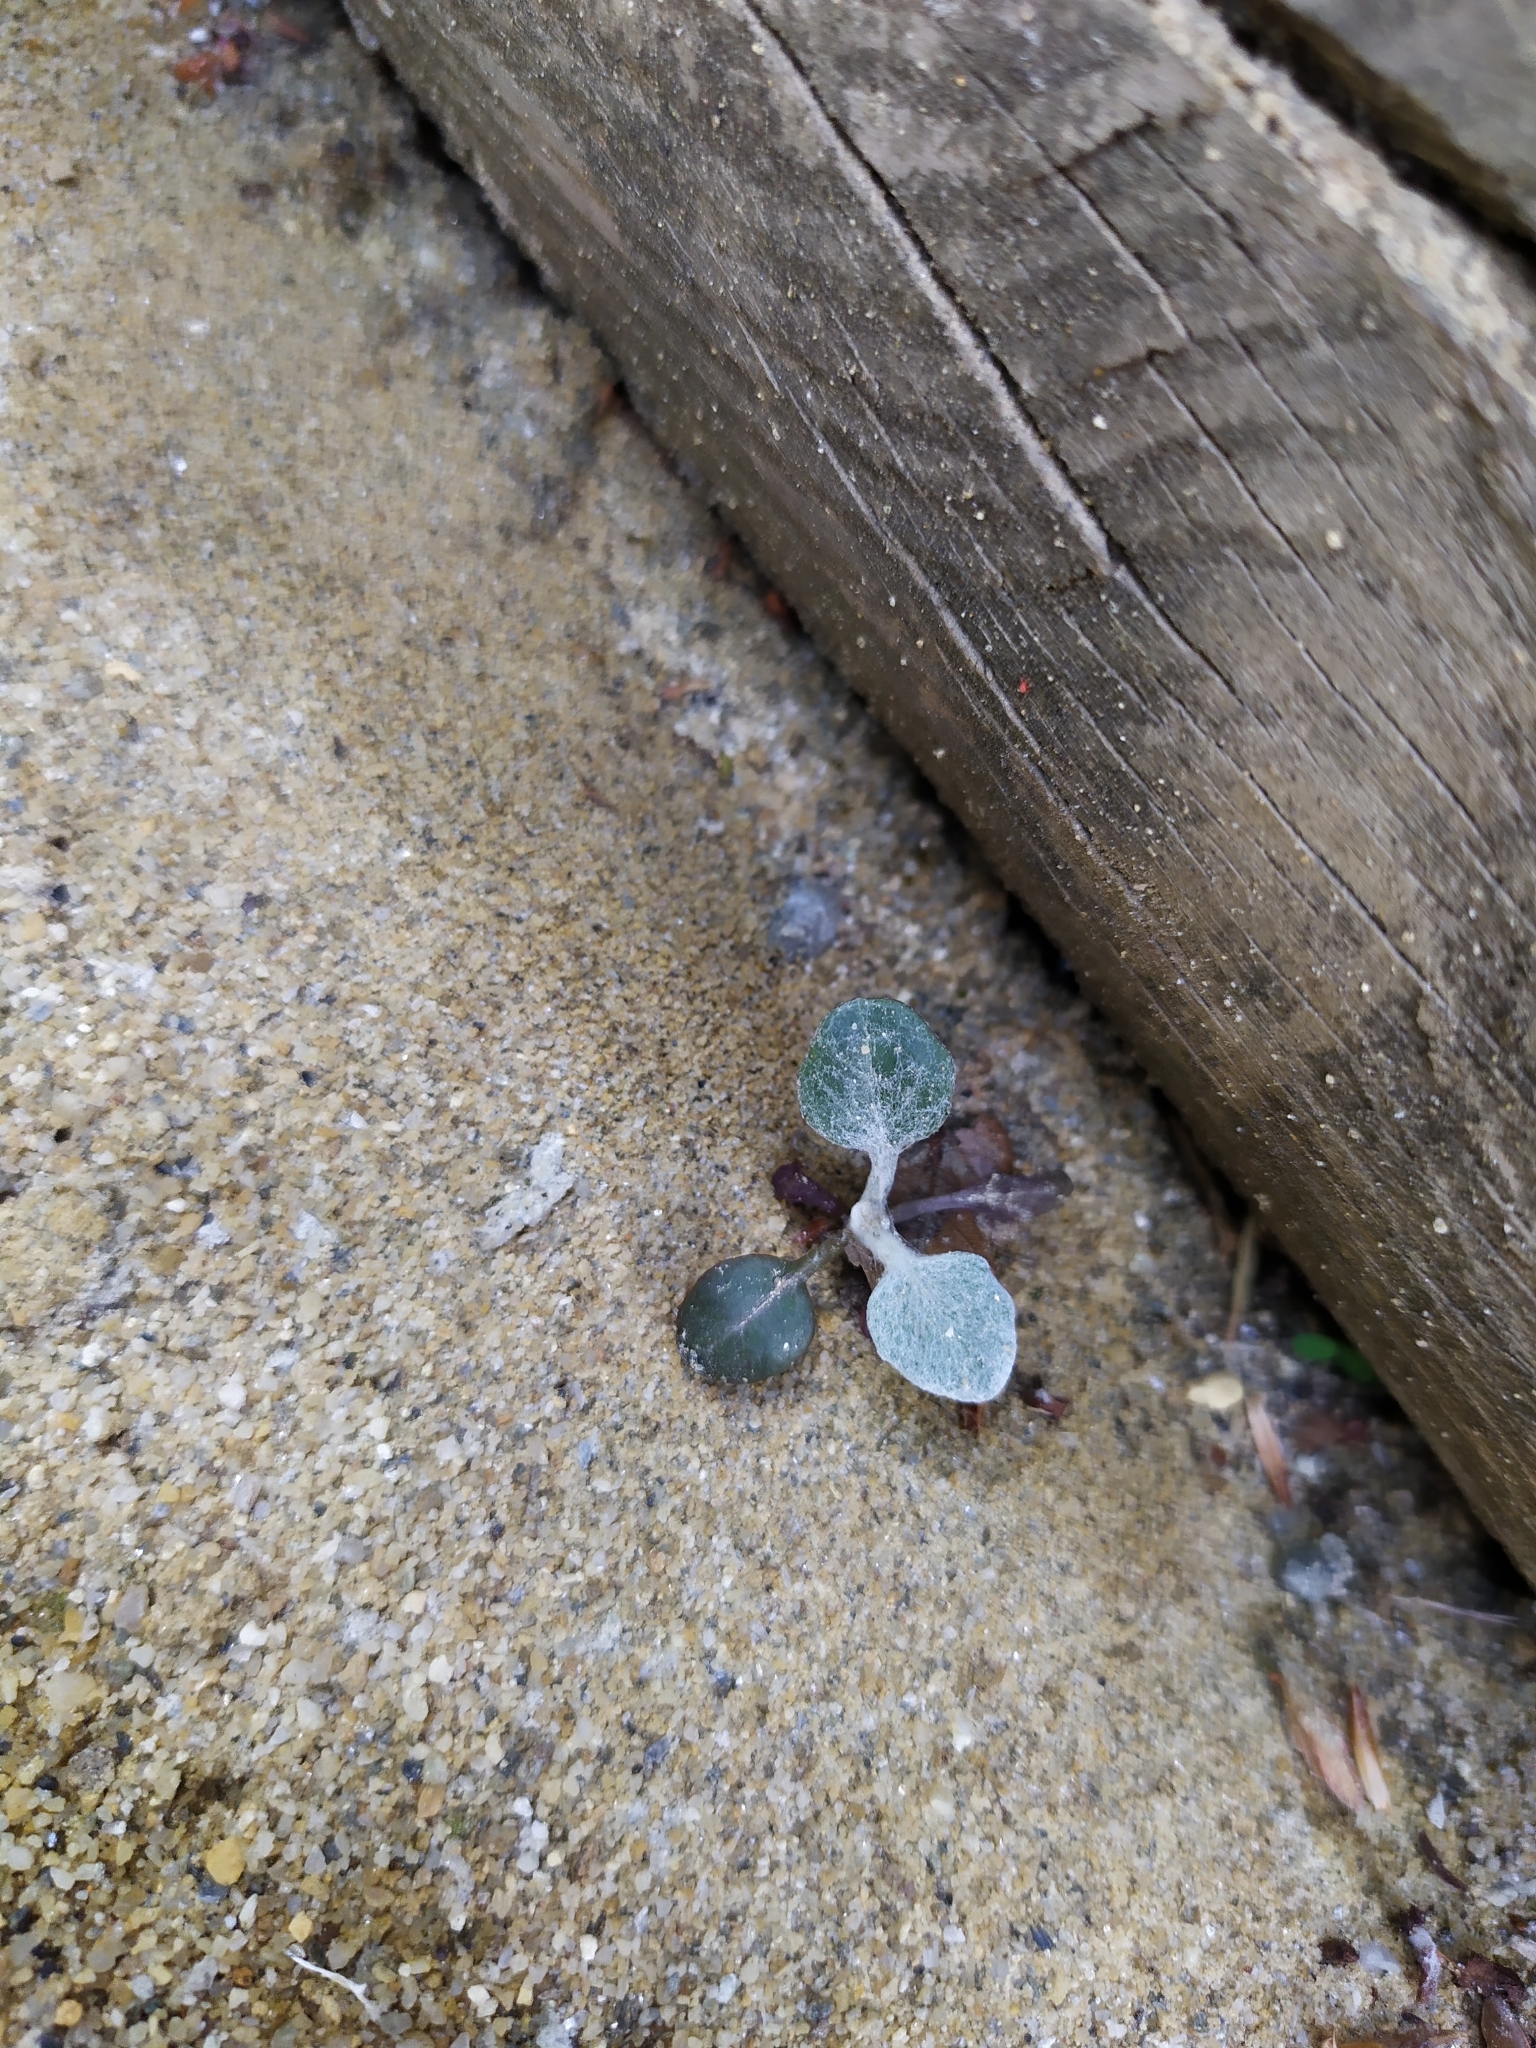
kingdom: Plantae
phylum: Tracheophyta
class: Magnoliopsida
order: Asterales
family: Asteraceae
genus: Jacobaea
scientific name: Jacobaea maritima
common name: Silver ragwort
